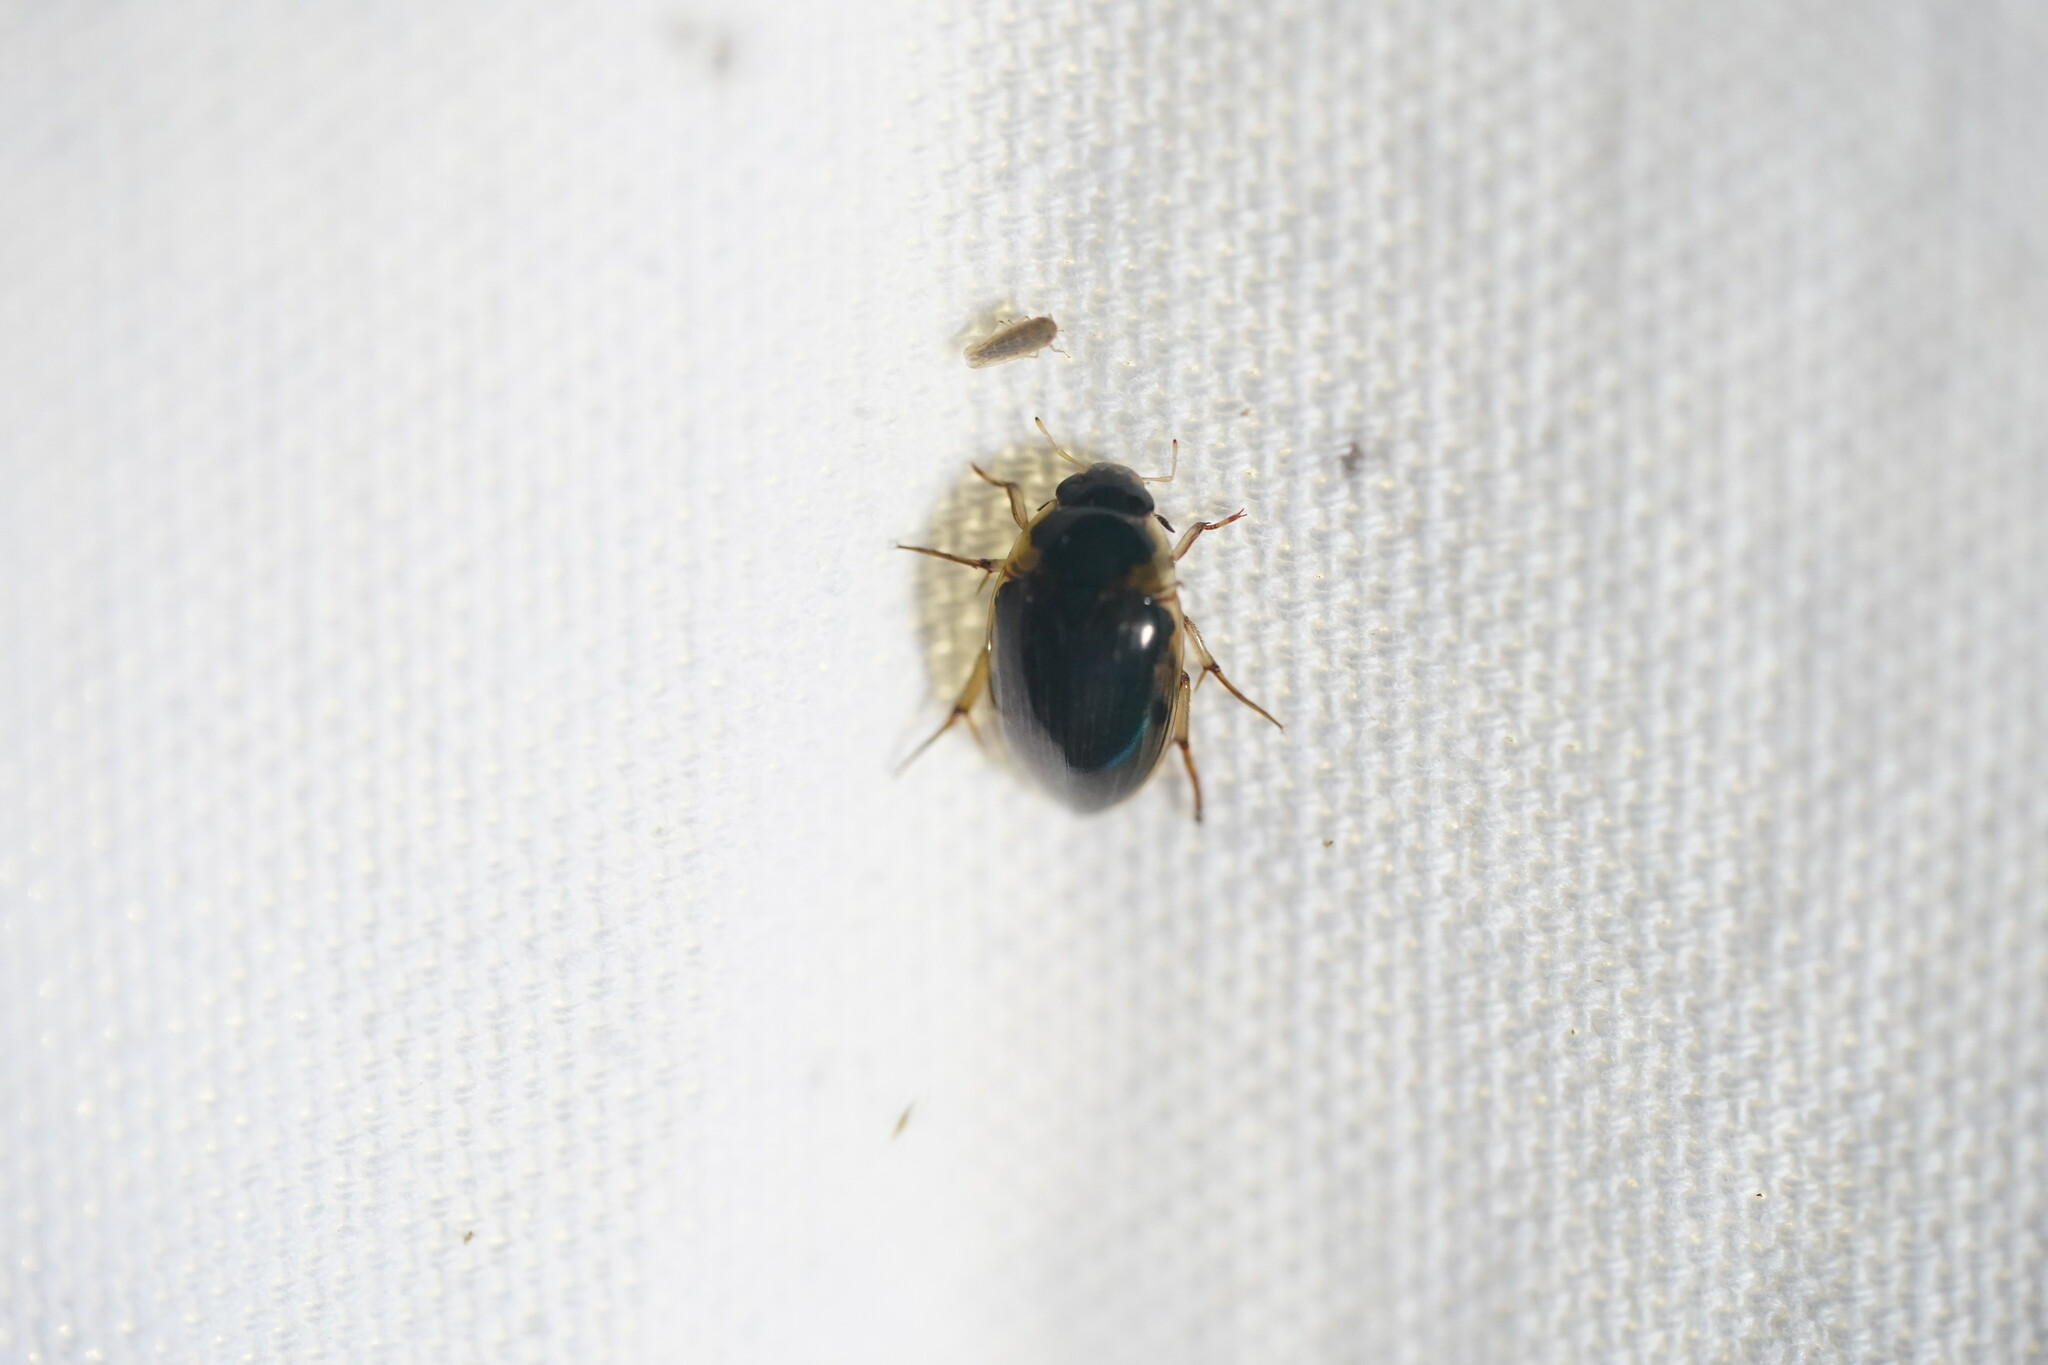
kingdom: Animalia
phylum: Arthropoda
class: Insecta
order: Coleoptera
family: Hydrophilidae
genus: Tropisternus
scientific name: Tropisternus collaris
